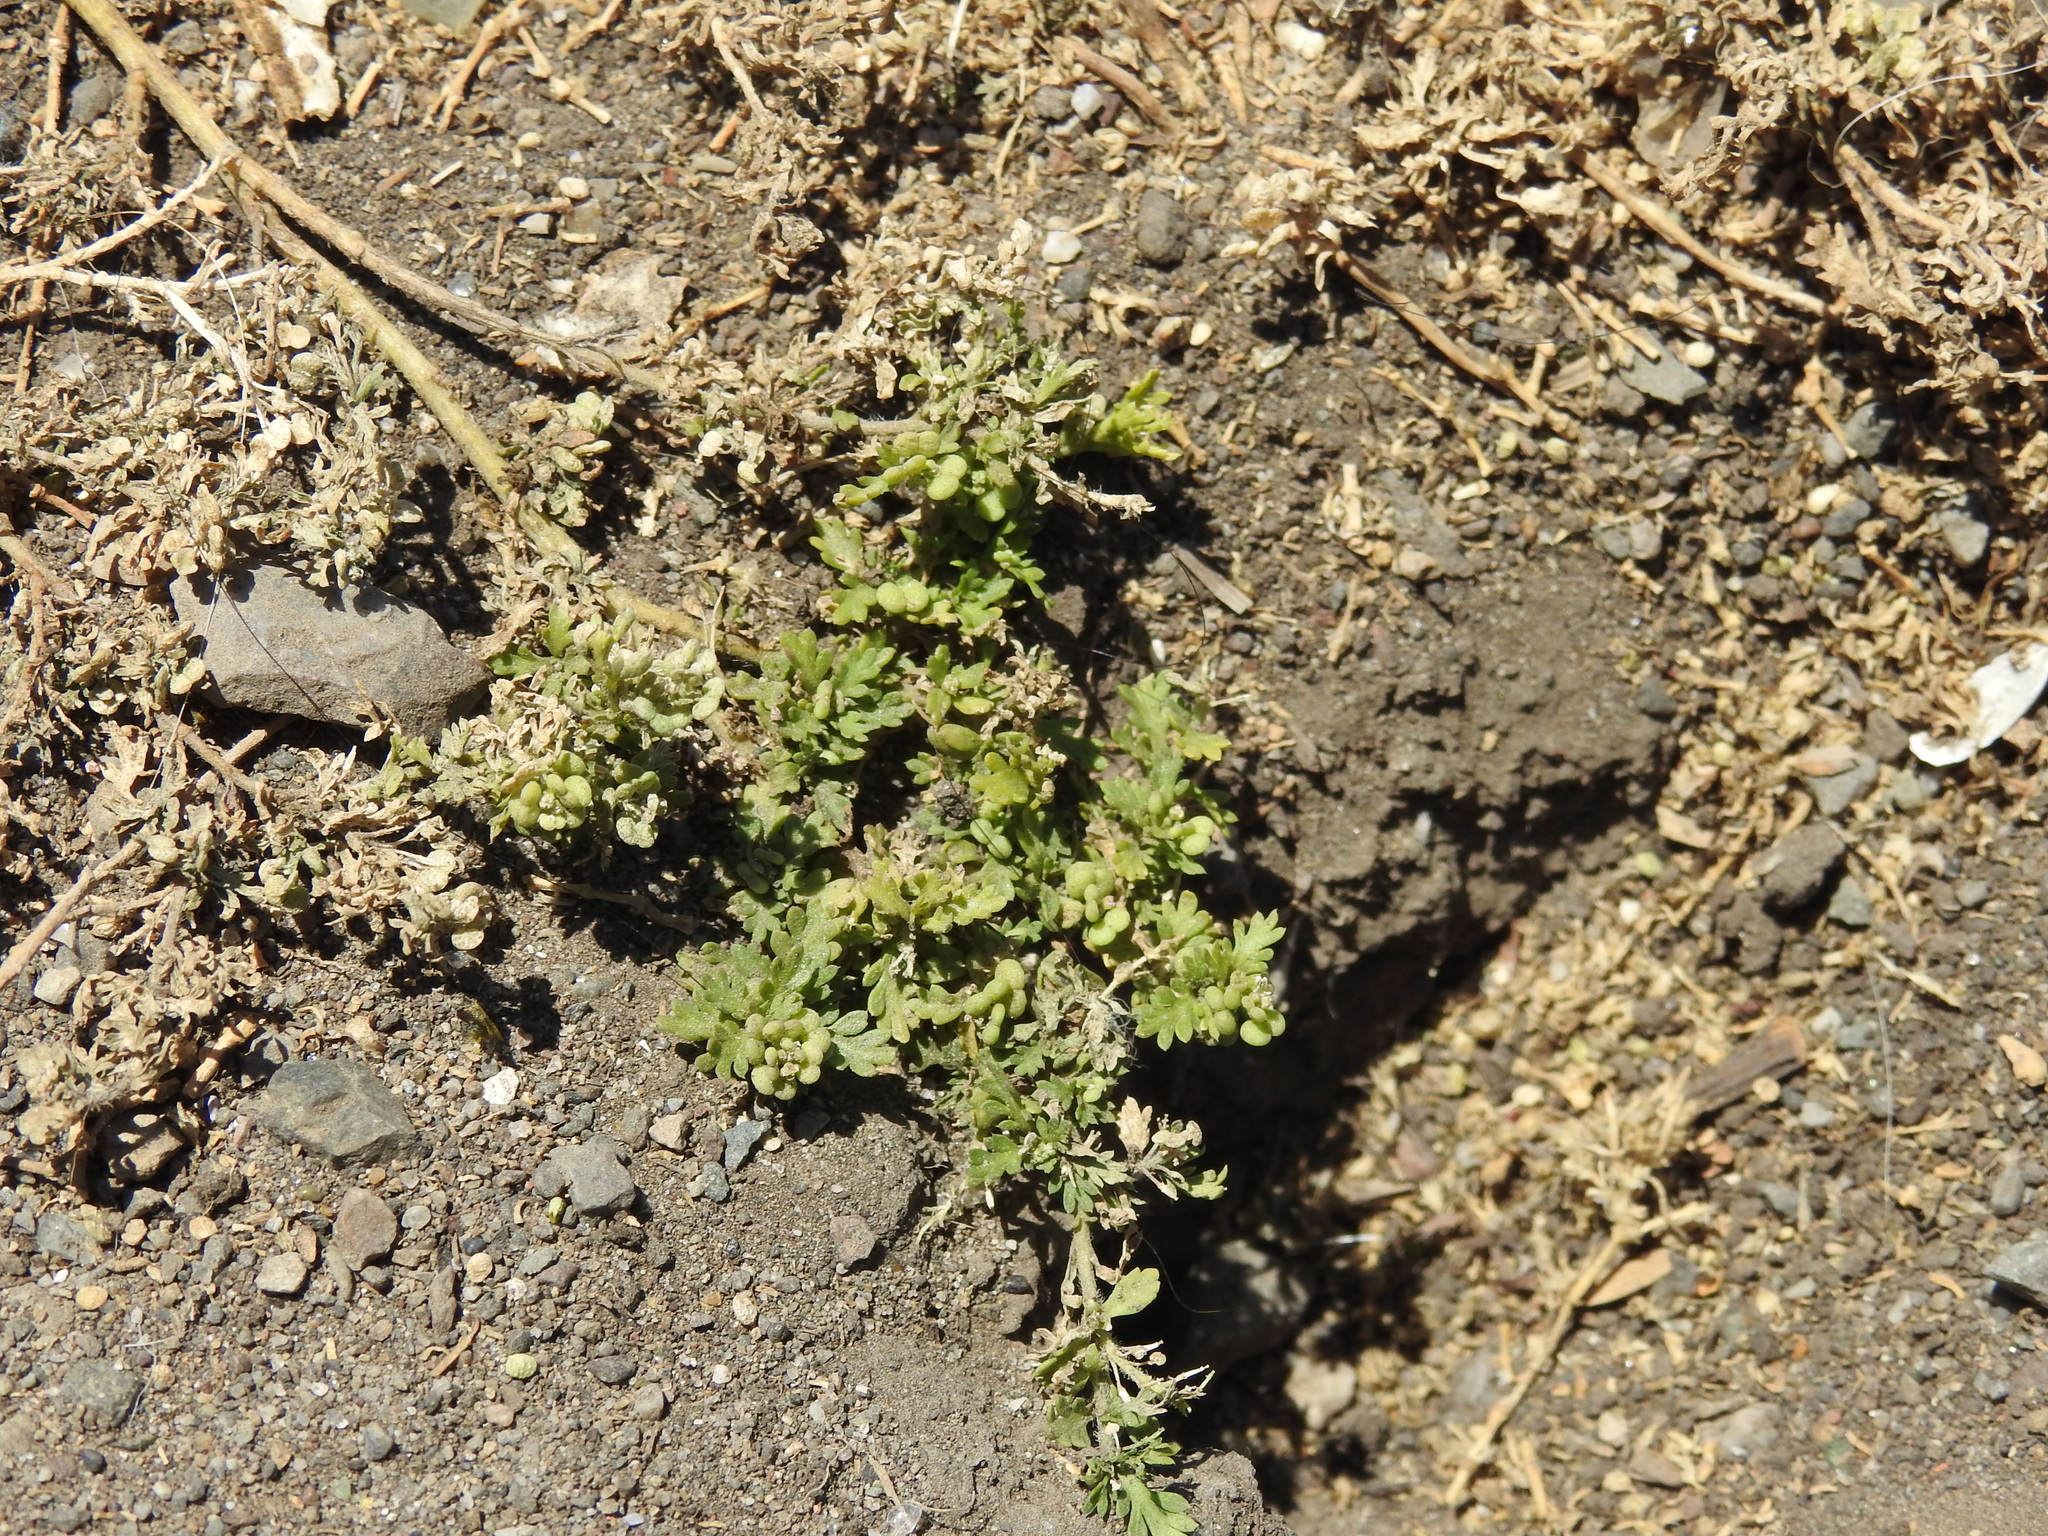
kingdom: Plantae
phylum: Tracheophyta
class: Magnoliopsida
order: Brassicales
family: Brassicaceae
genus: Lepidium
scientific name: Lepidium didymum
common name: Lesser swinecress
